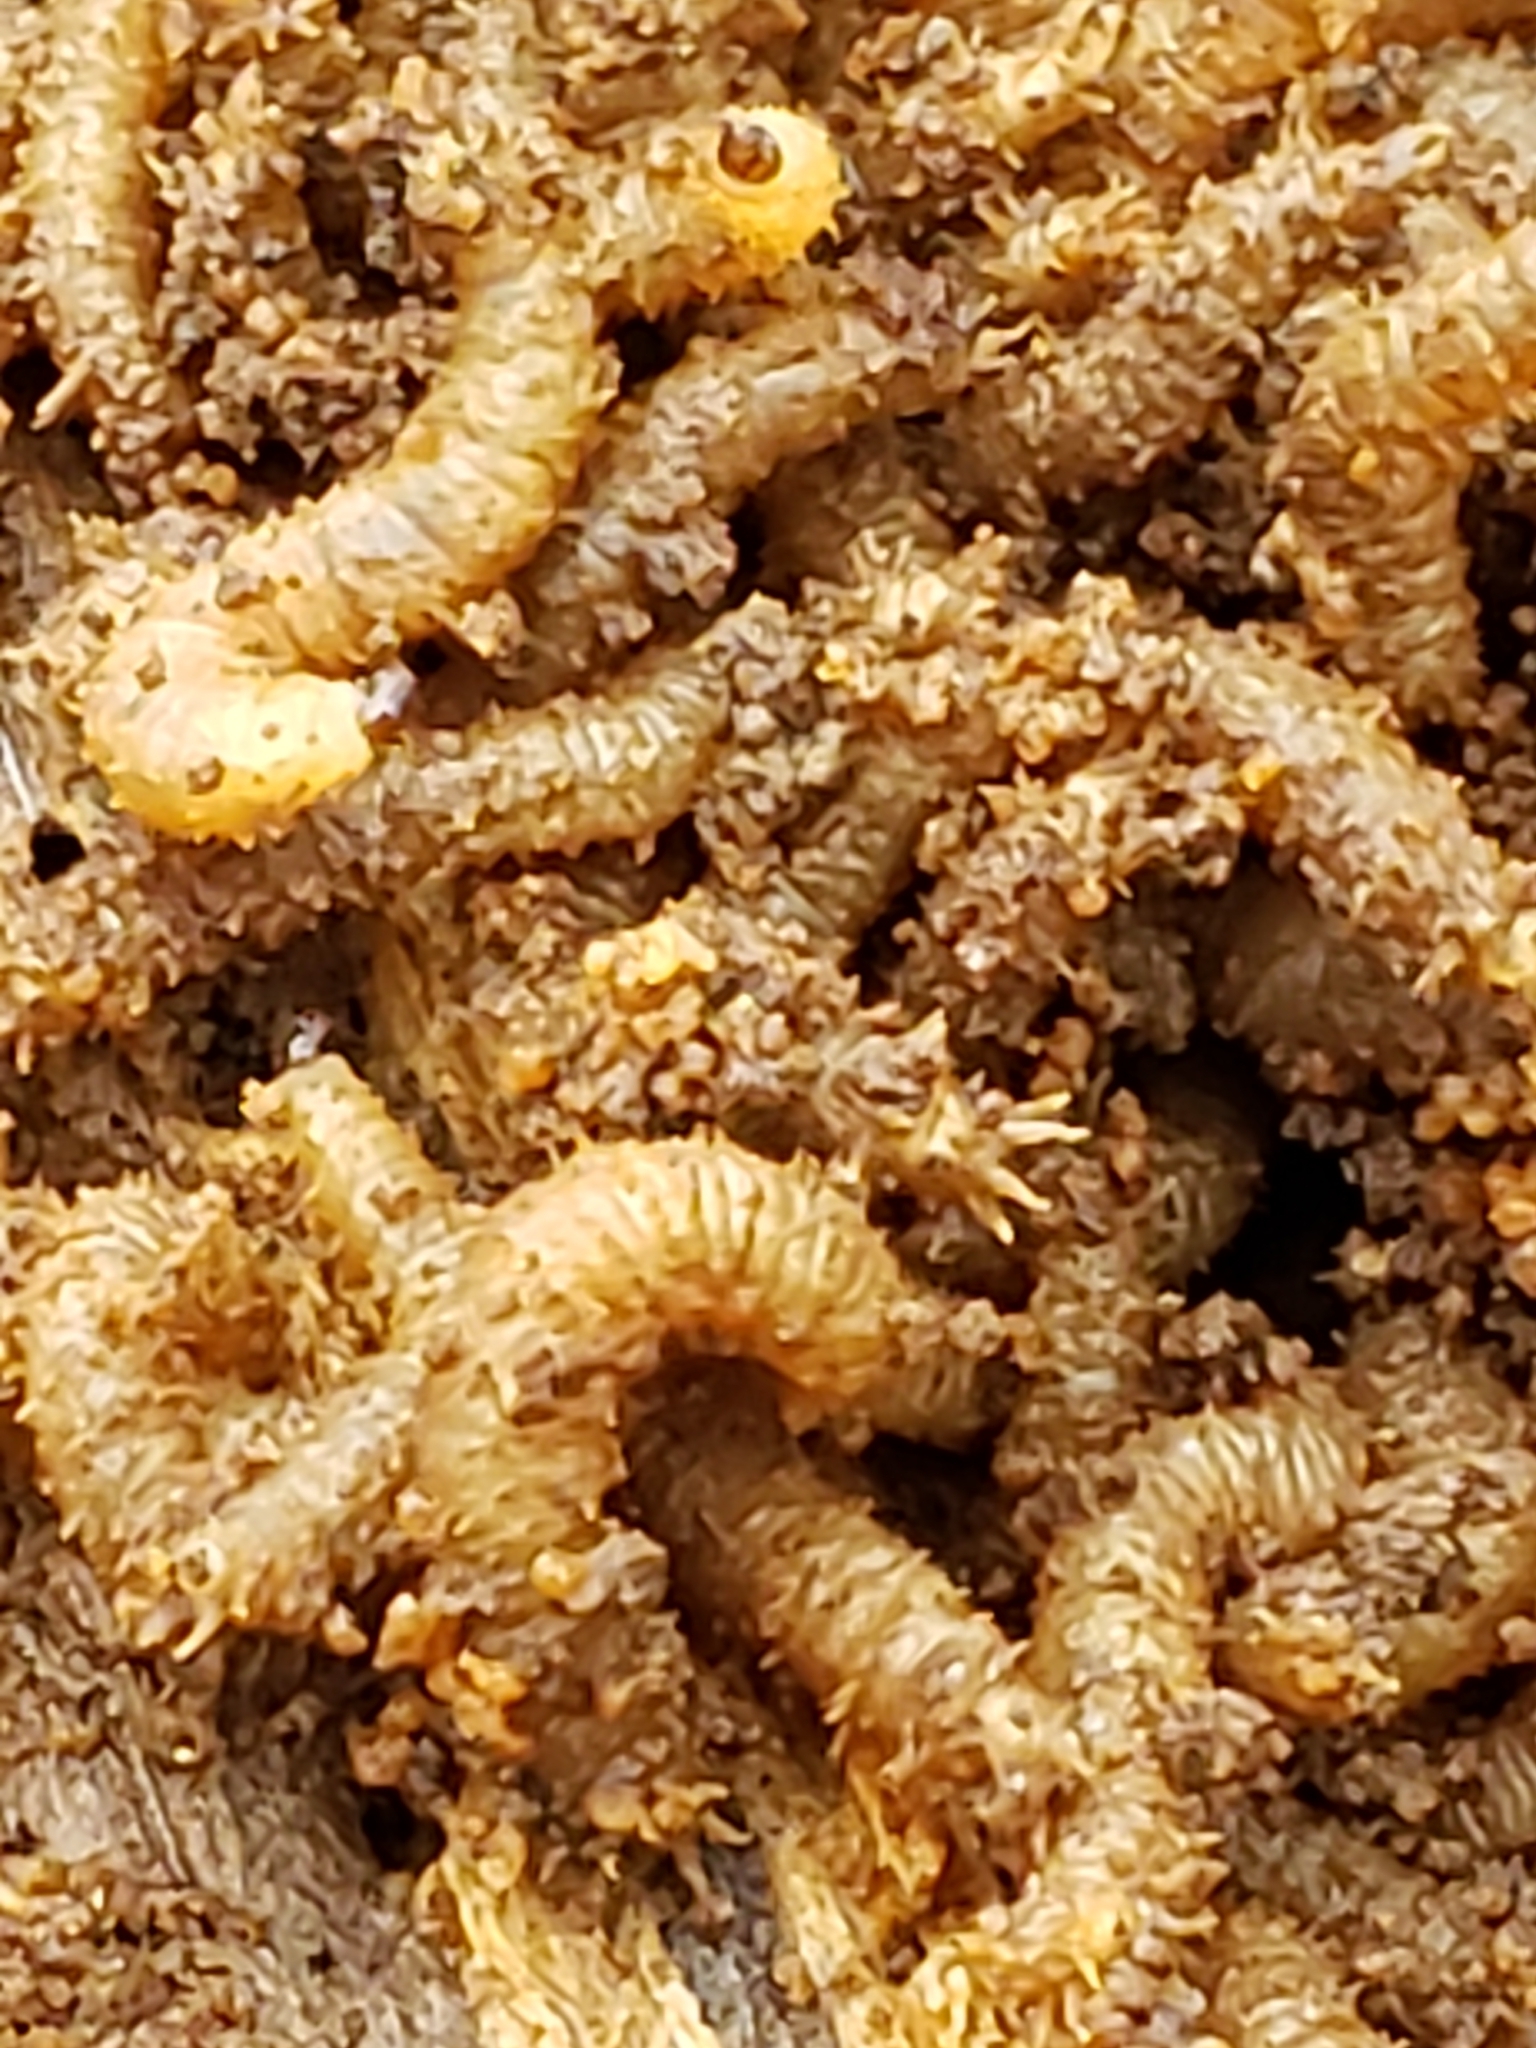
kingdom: Animalia
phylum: Arthropoda
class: Insecta
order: Diptera
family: Bibionidae
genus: Bibio
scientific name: Bibio
